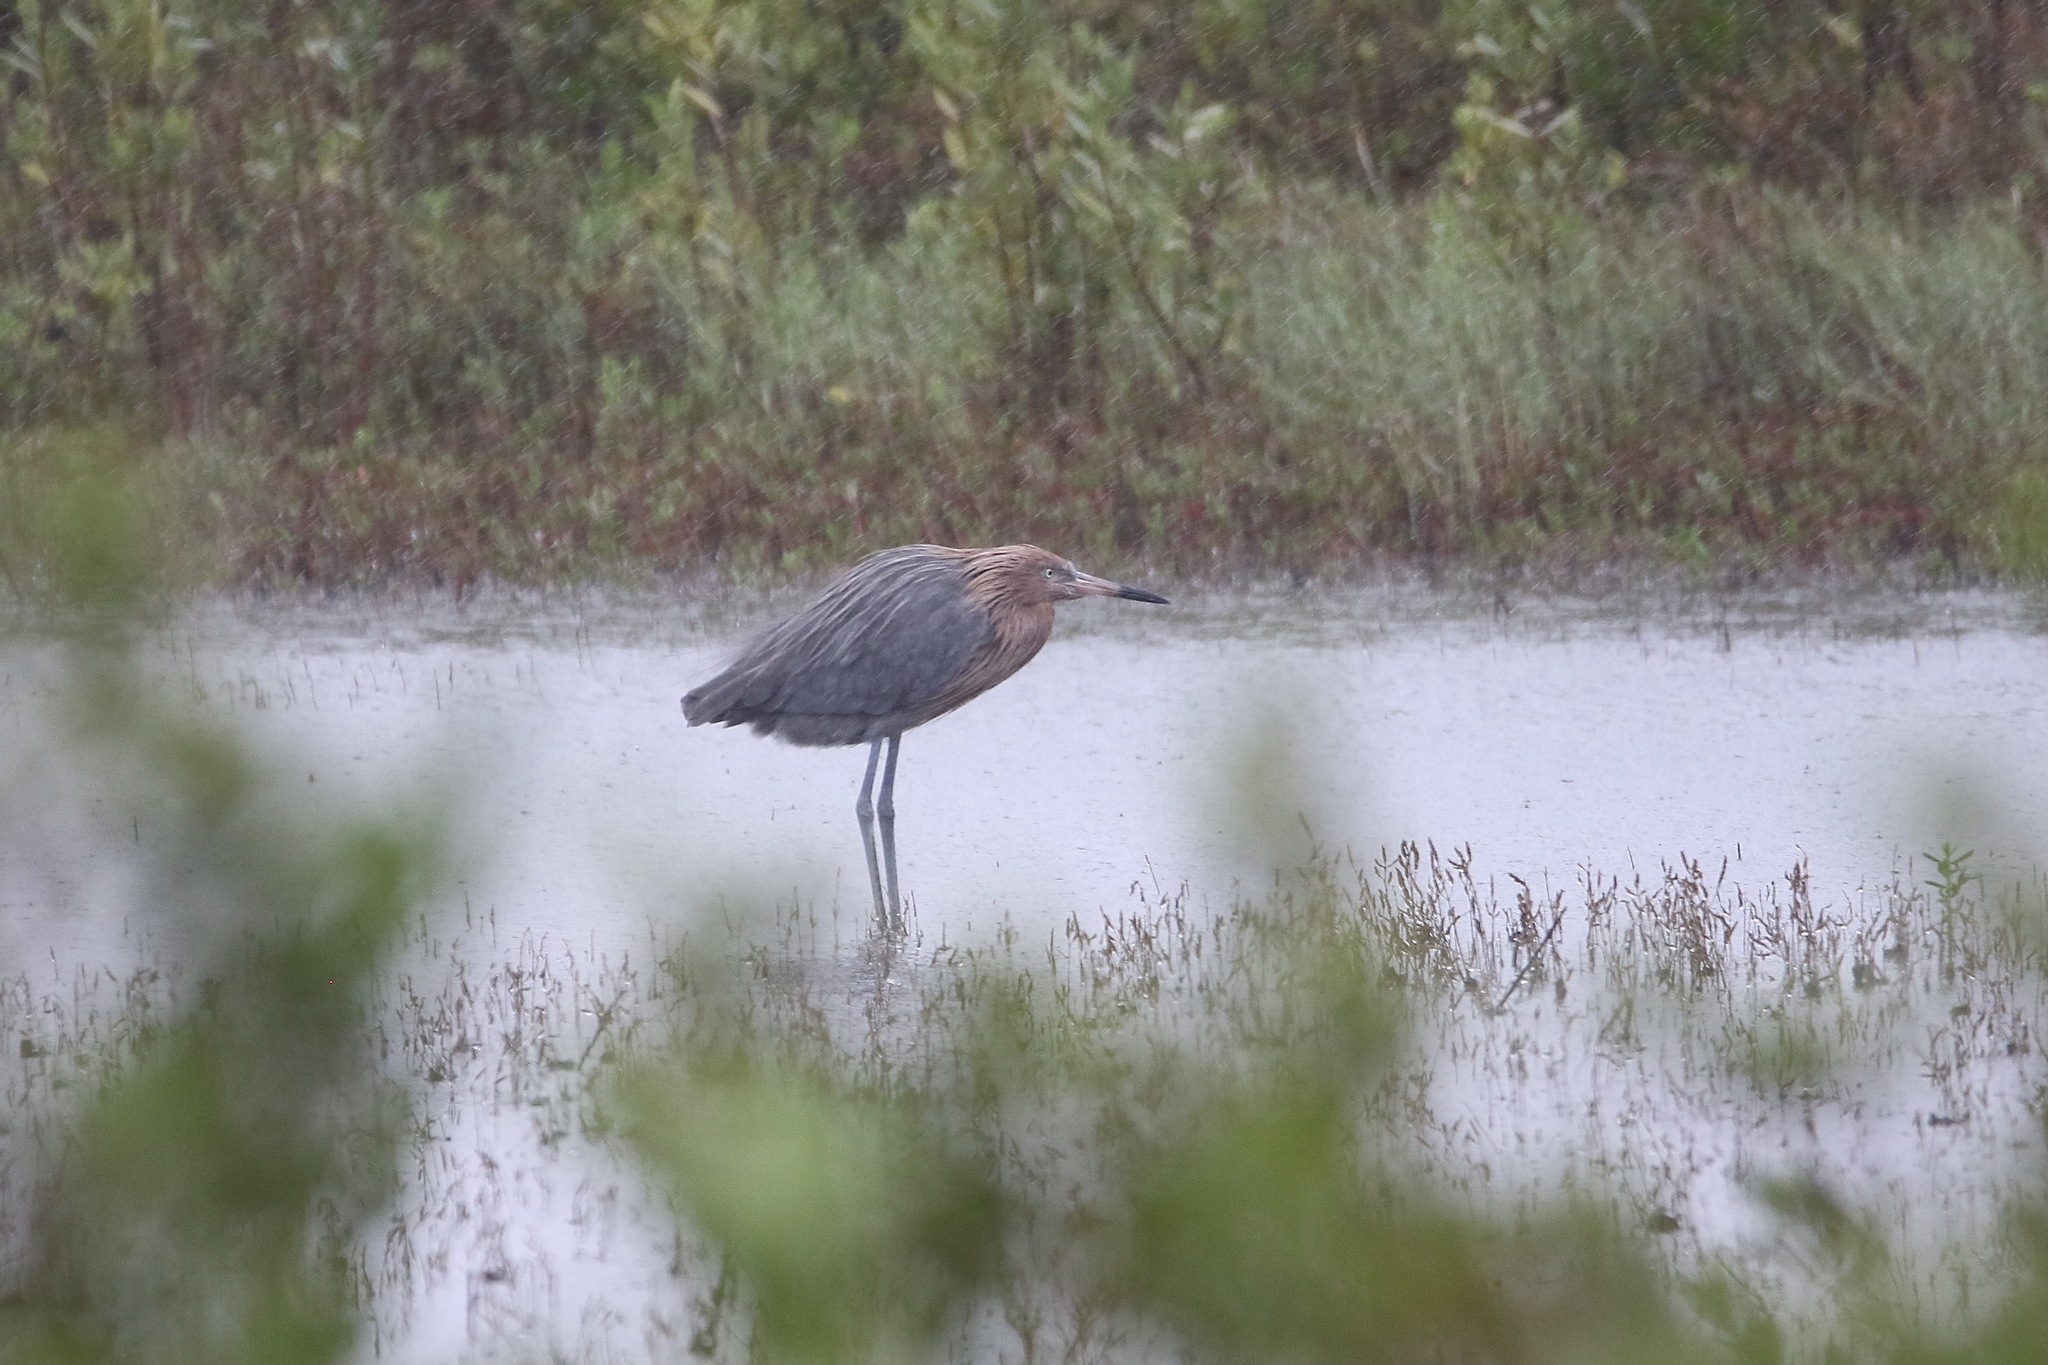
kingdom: Animalia
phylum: Chordata
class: Aves
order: Pelecaniformes
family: Ardeidae
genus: Egretta
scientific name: Egretta rufescens
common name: Reddish egret
